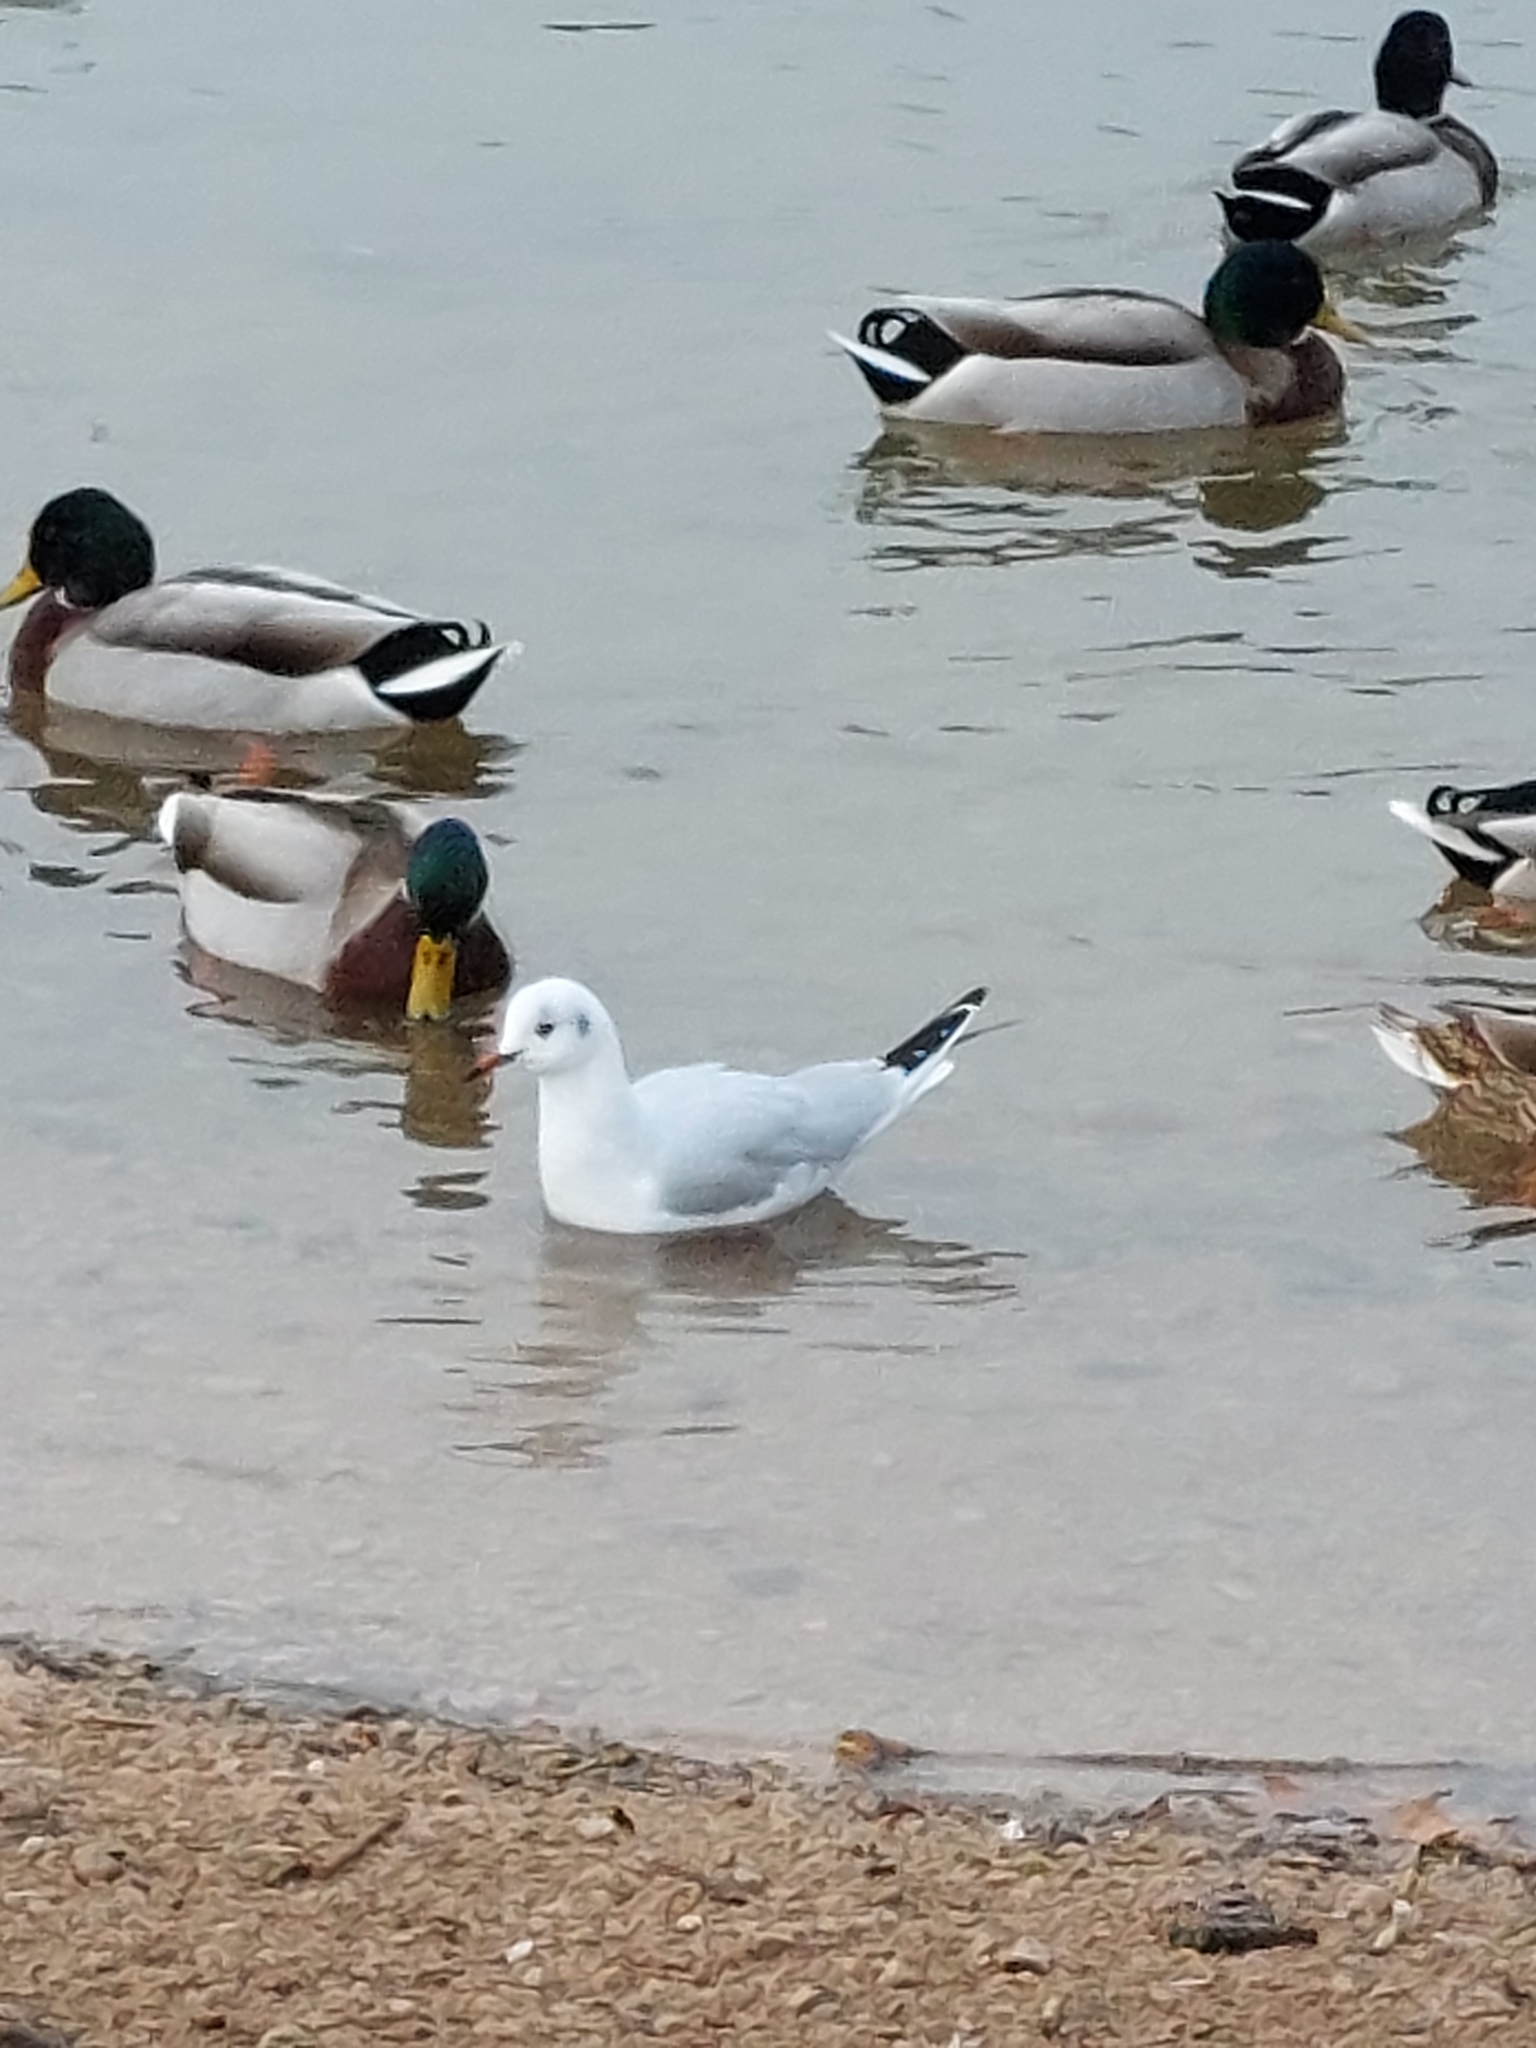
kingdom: Animalia
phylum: Chordata
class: Aves
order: Anseriformes
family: Anatidae
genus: Anas
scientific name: Anas platyrhynchos
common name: Mallard
